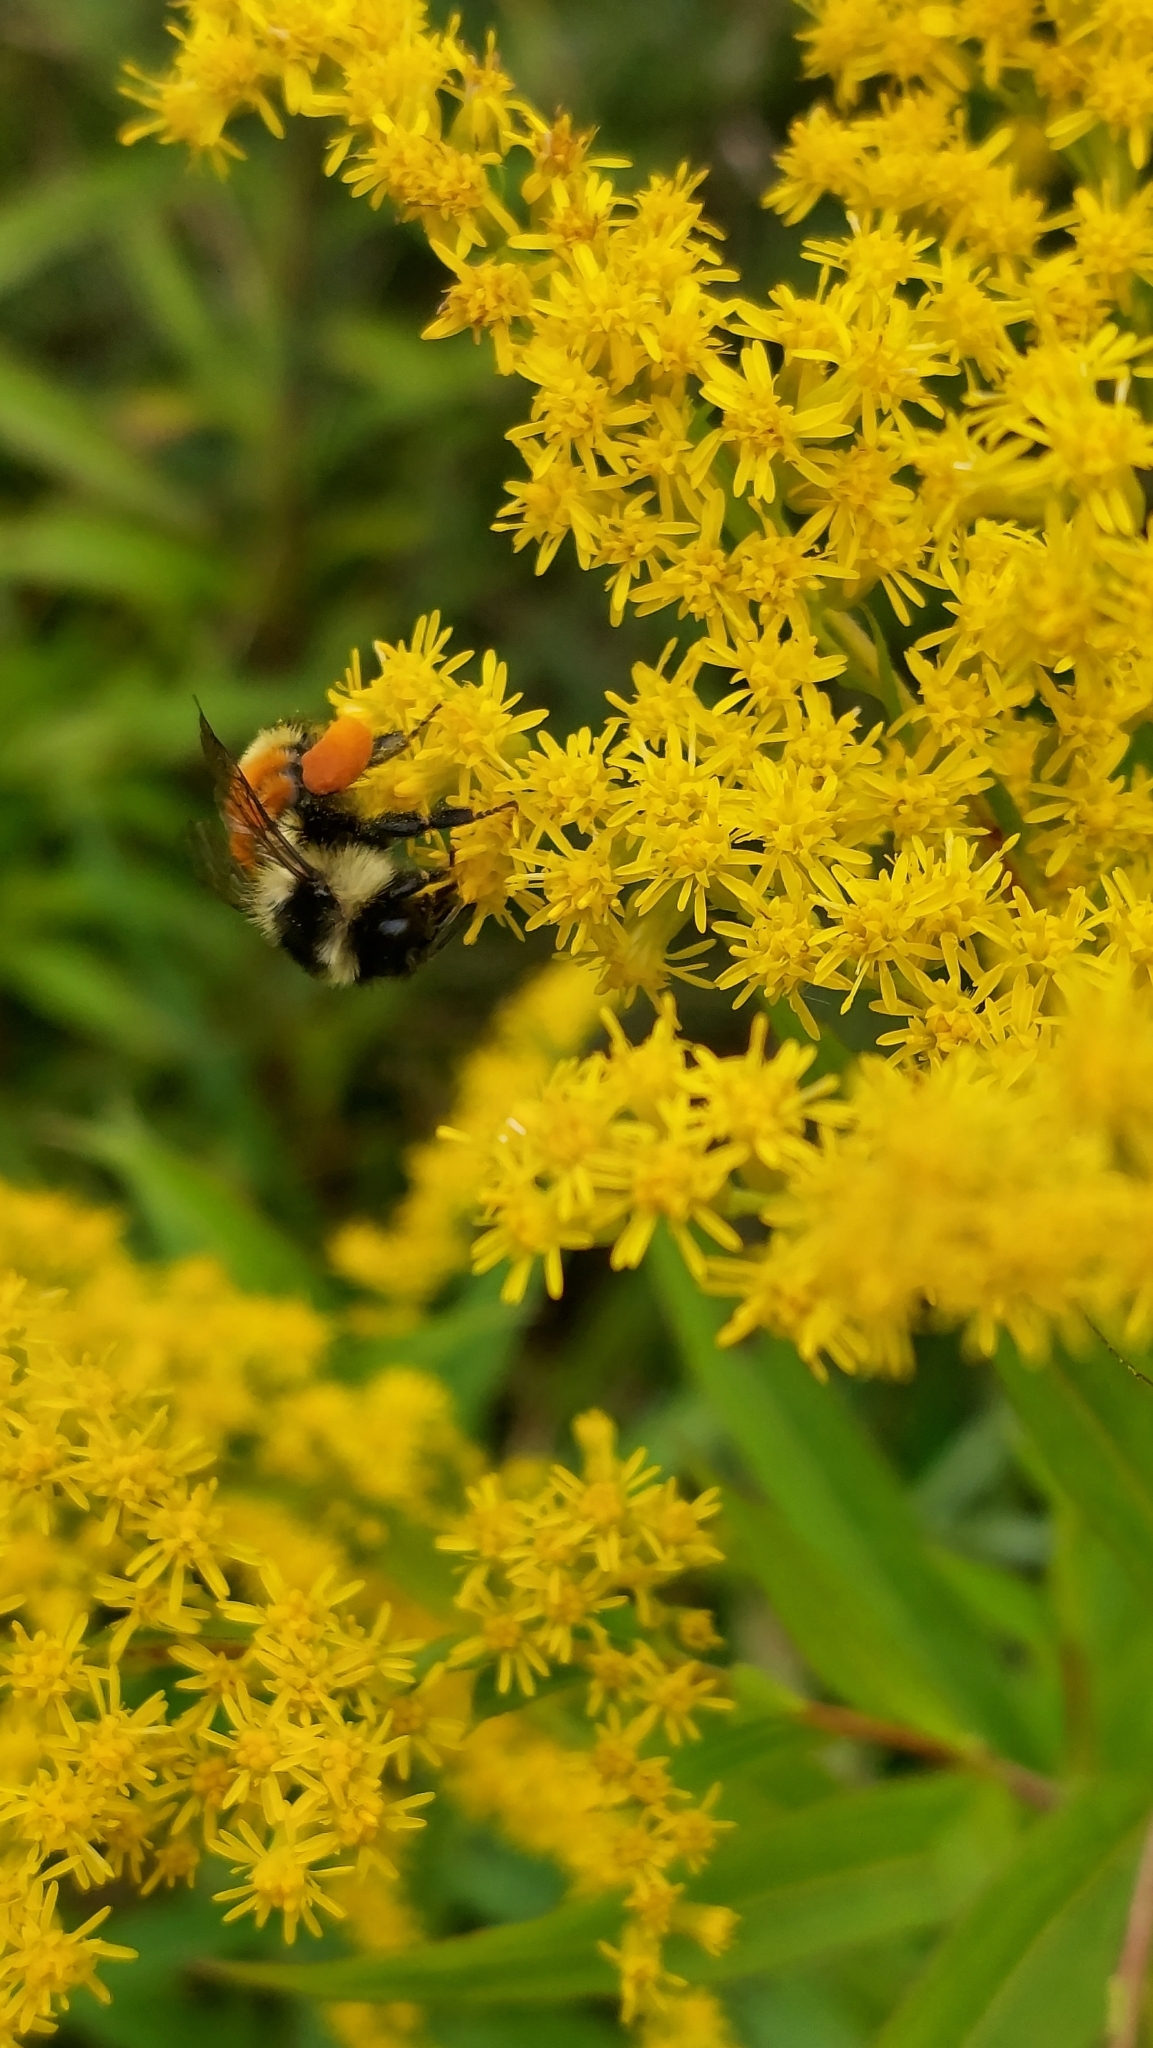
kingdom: Animalia
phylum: Arthropoda
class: Insecta
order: Hymenoptera
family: Apidae
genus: Bombus
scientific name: Bombus ternarius
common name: Tri-colored bumble bee
